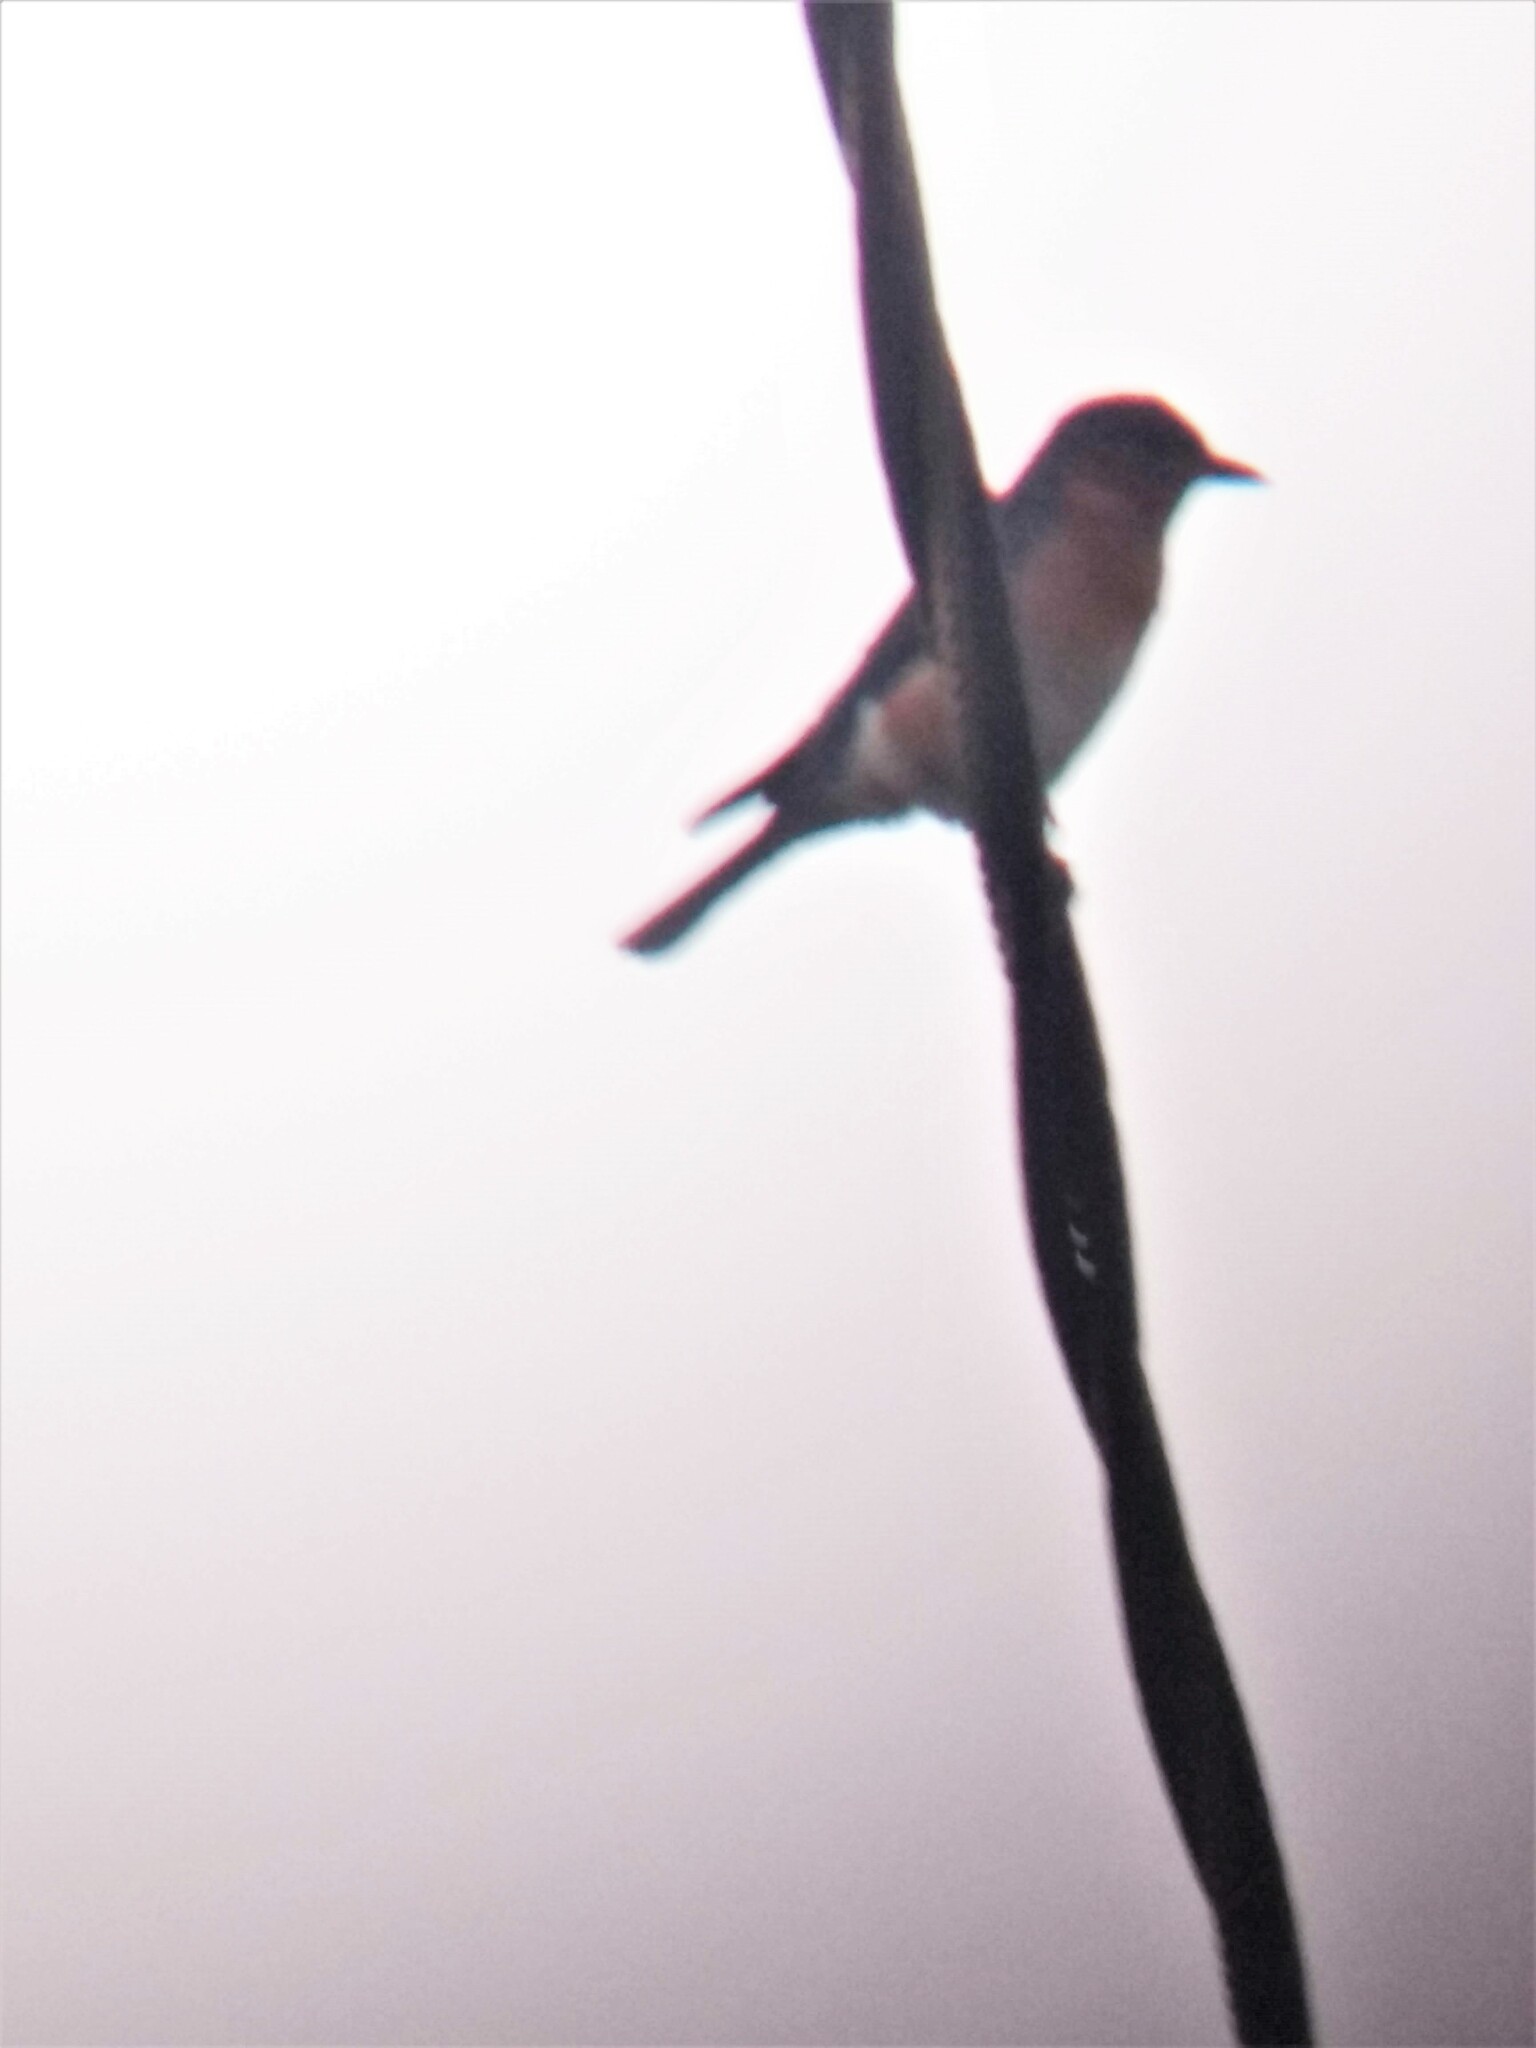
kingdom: Animalia
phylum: Chordata
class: Aves
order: Passeriformes
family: Turdidae
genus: Sialia
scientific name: Sialia sialis
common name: Eastern bluebird
